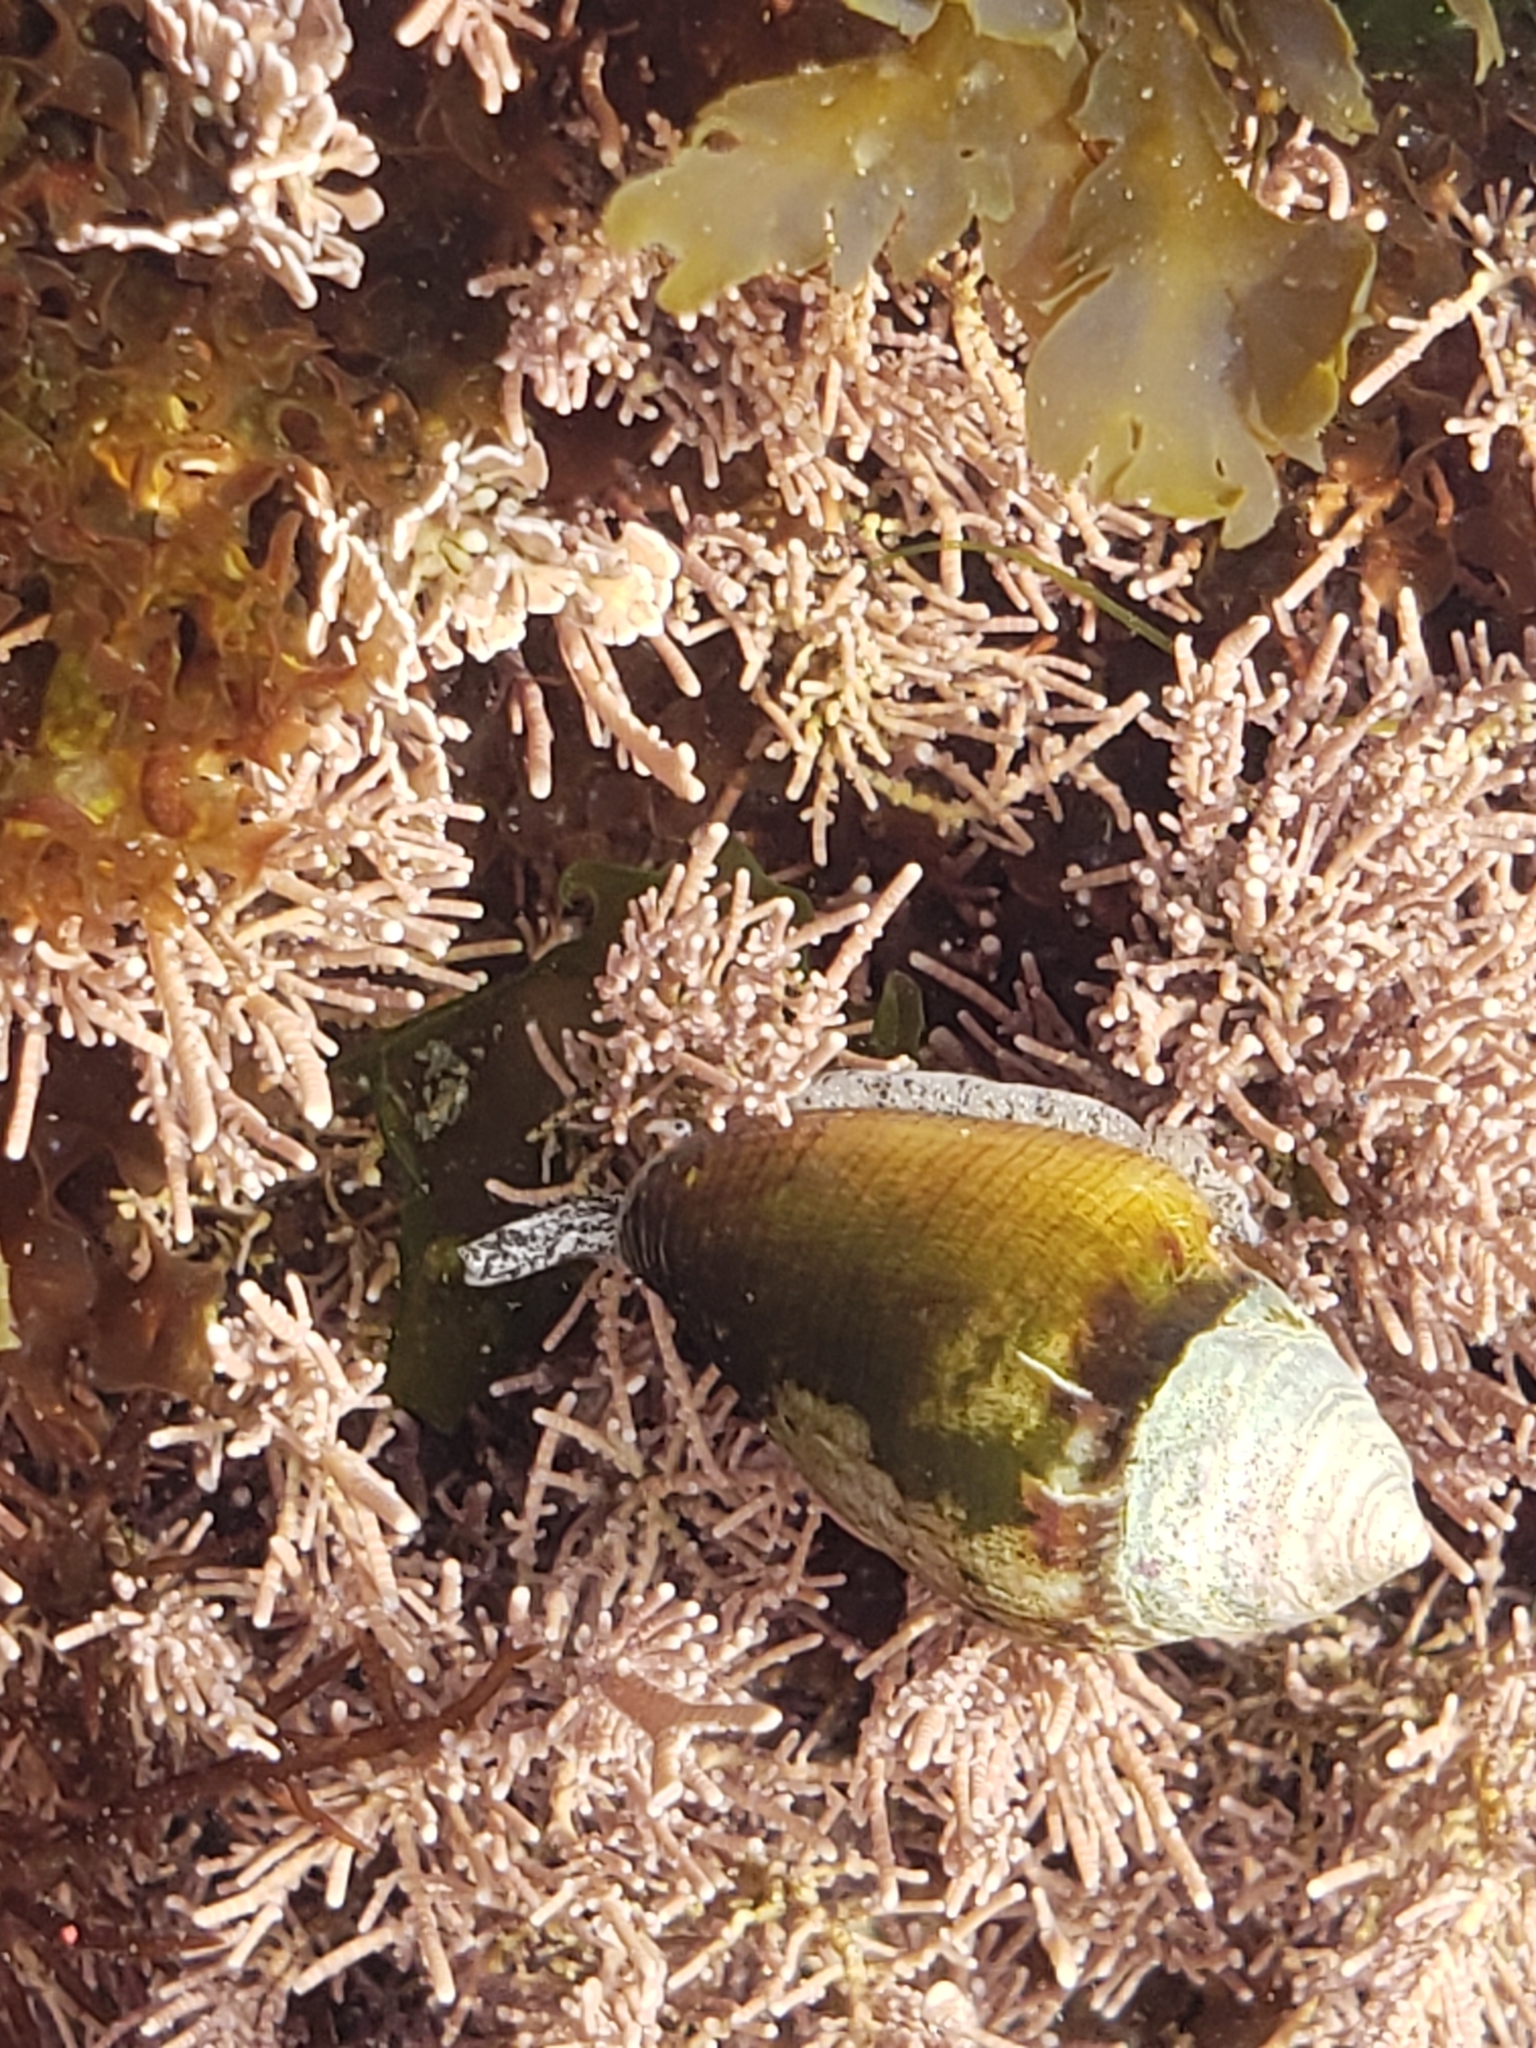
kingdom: Animalia
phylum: Mollusca
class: Gastropoda
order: Neogastropoda
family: Conidae
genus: Californiconus
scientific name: Californiconus californicus
